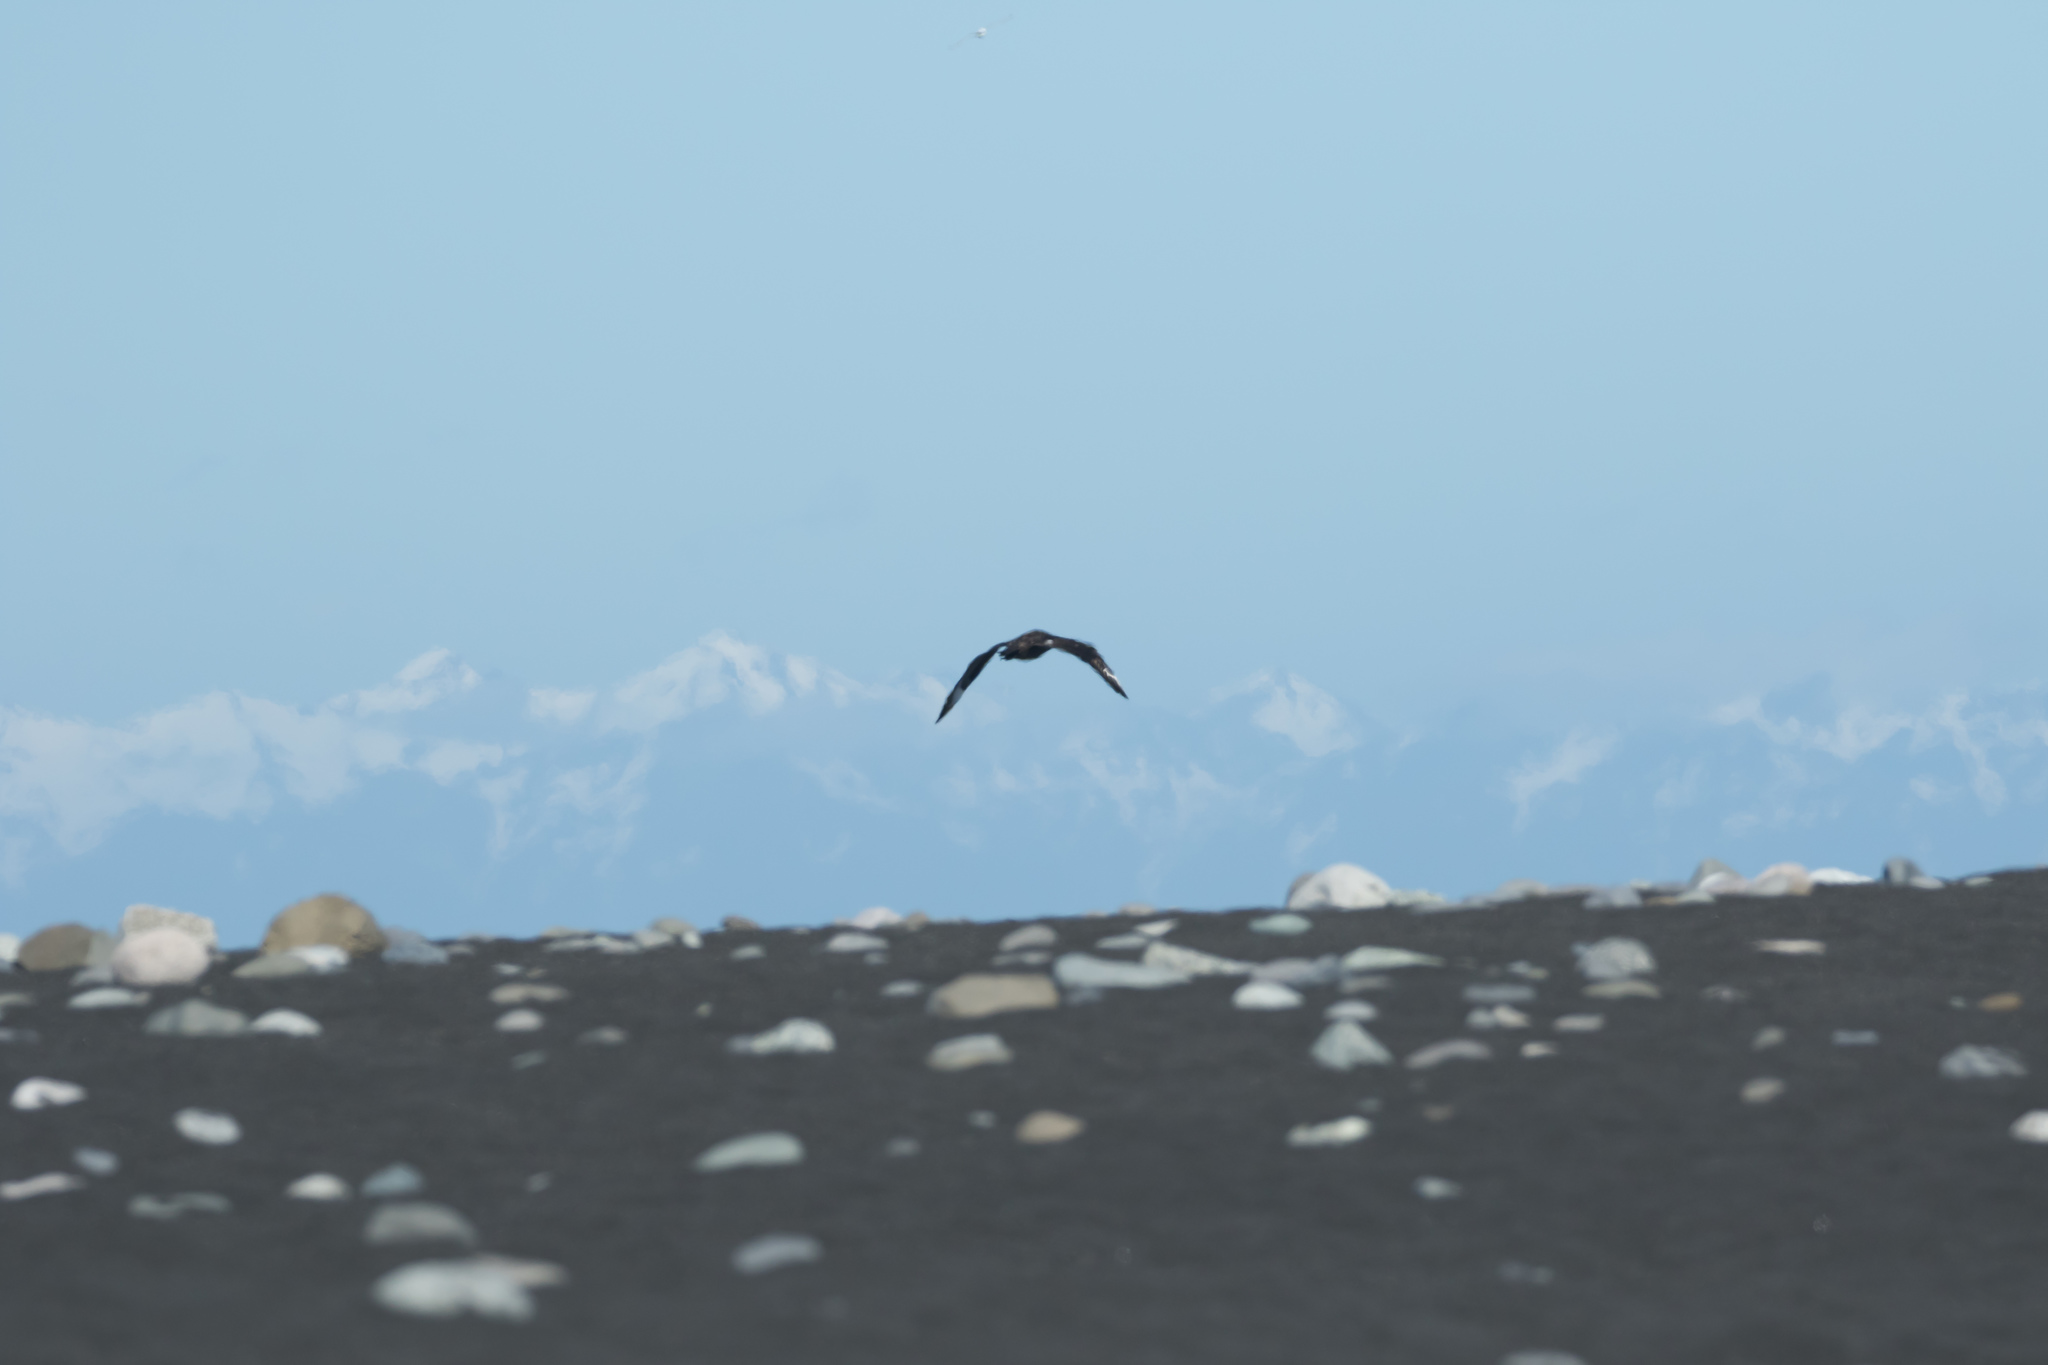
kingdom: Animalia
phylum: Chordata
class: Aves
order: Charadriiformes
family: Stercorariidae
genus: Stercorarius
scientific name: Stercorarius skua
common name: Great skua
